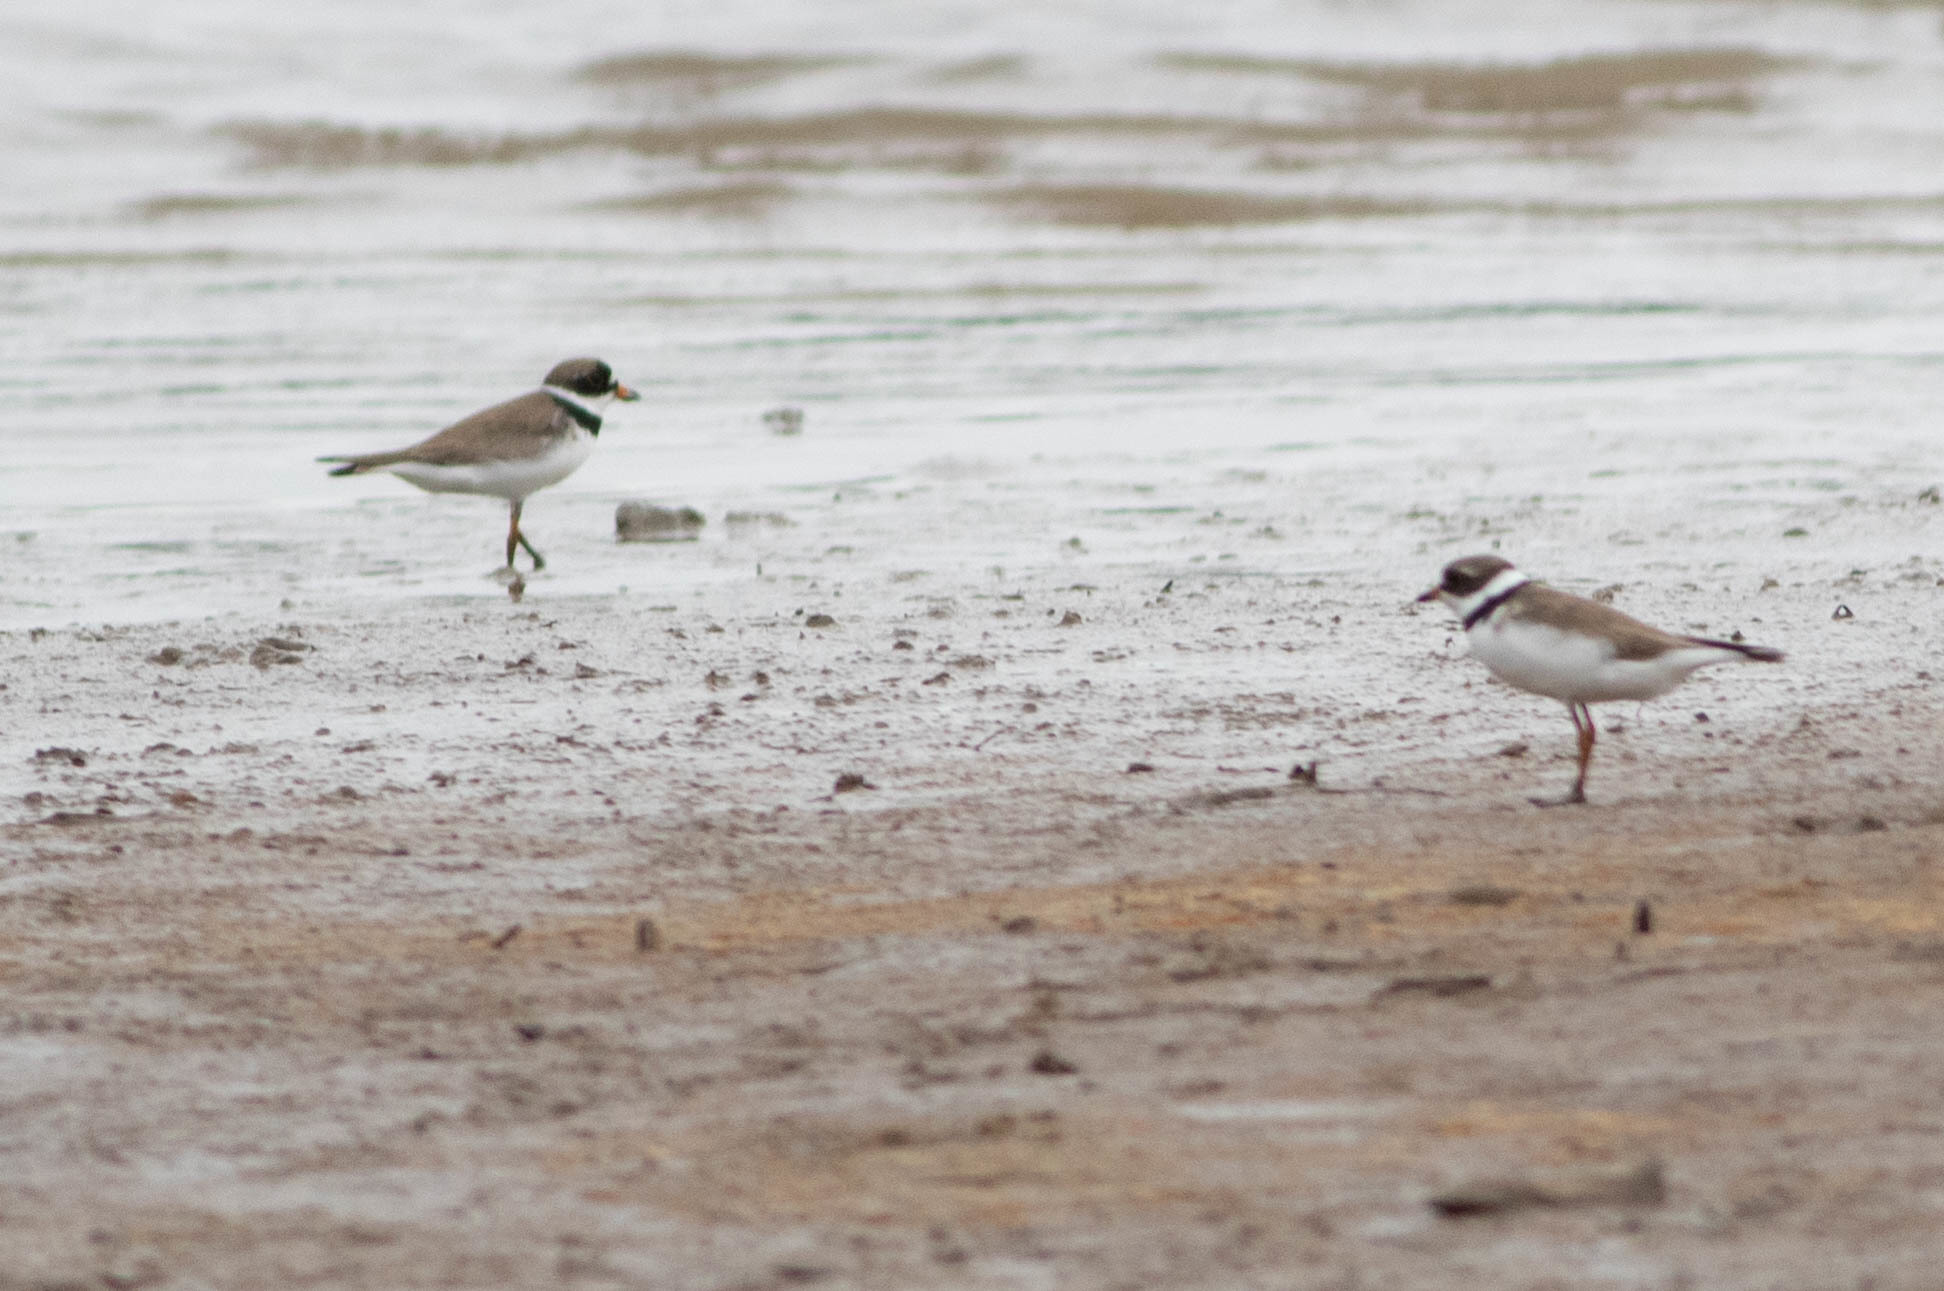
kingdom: Animalia
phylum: Chordata
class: Aves
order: Charadriiformes
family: Charadriidae
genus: Charadrius
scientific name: Charadrius semipalmatus
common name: Semipalmated plover
